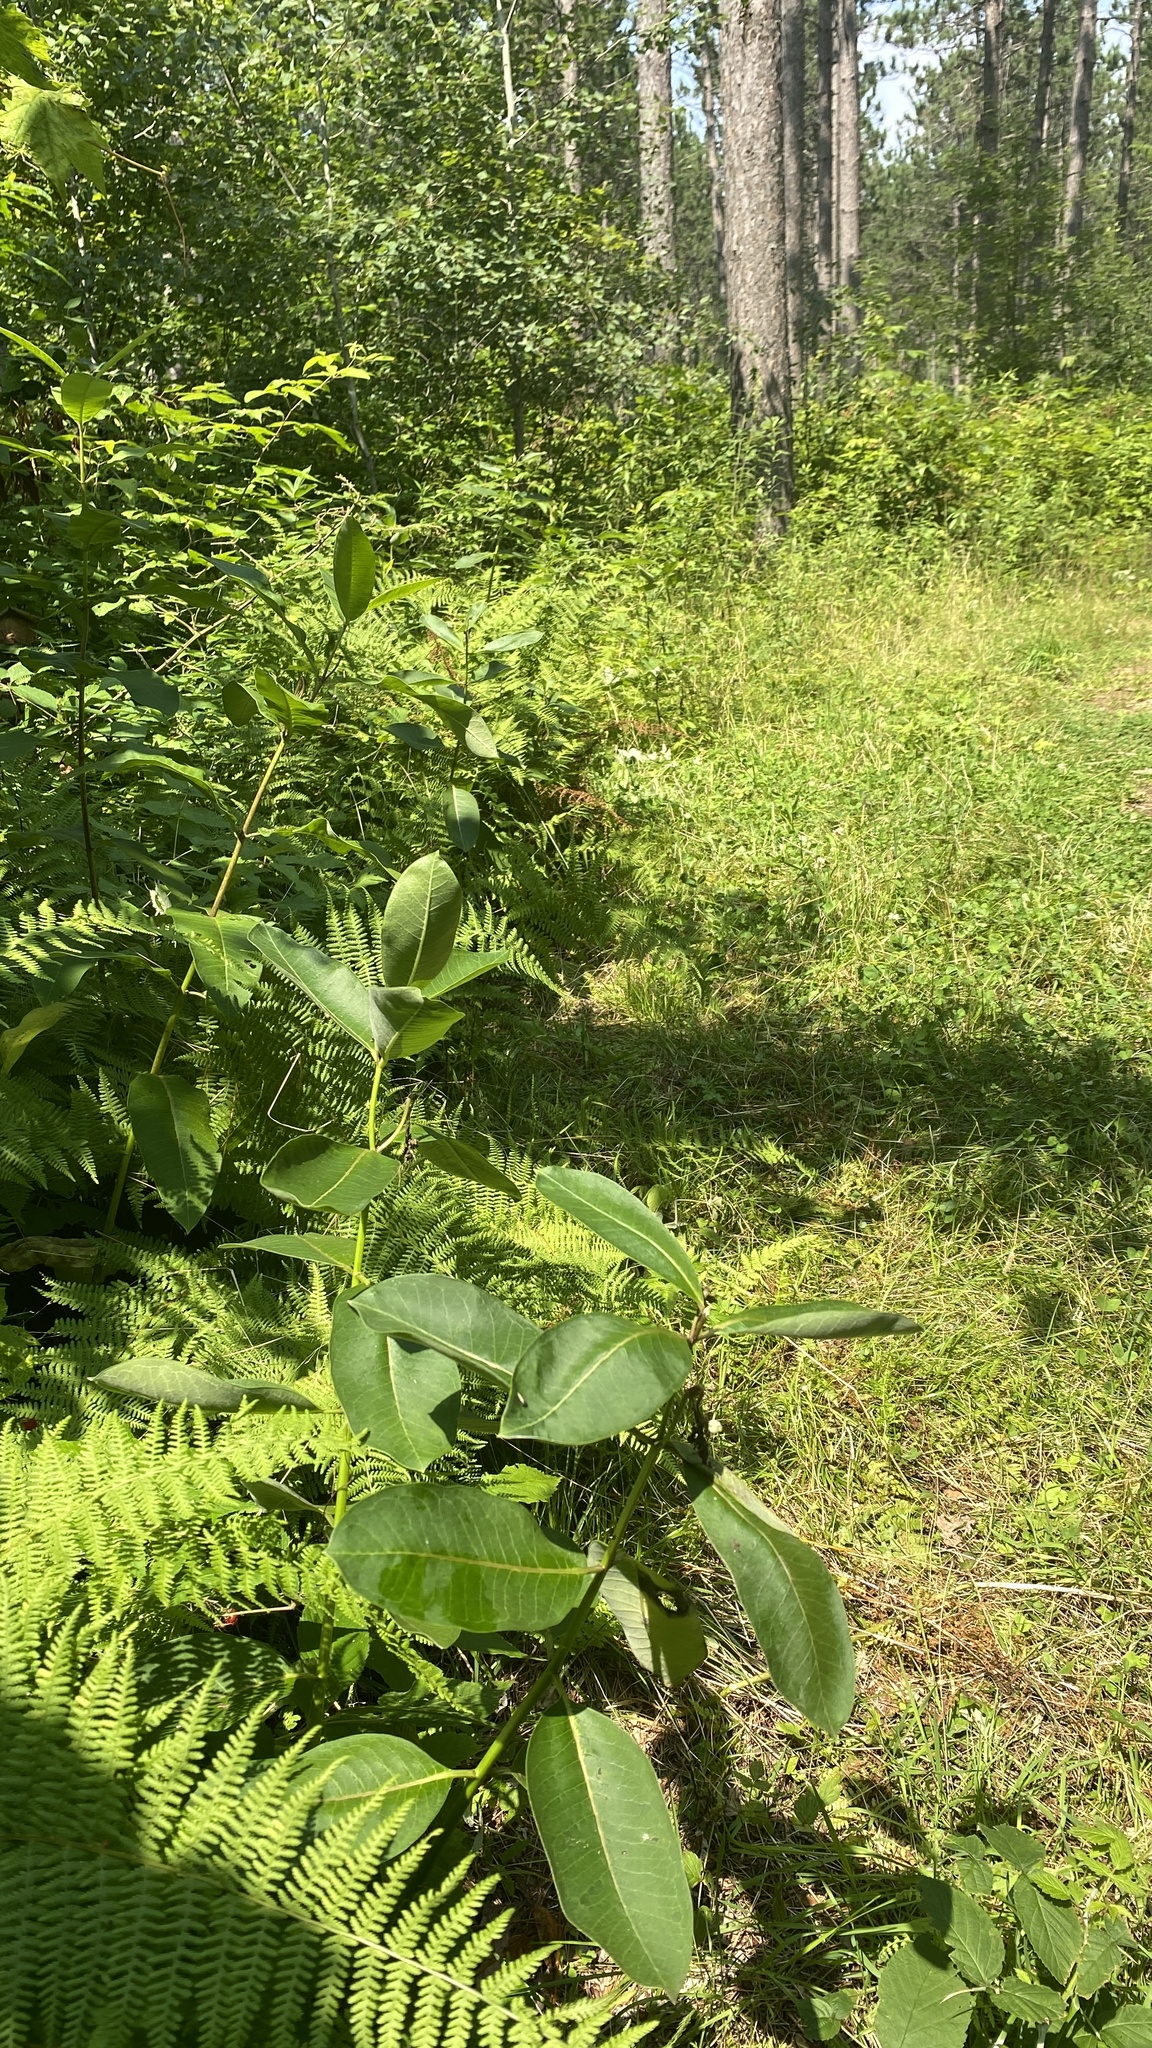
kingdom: Plantae
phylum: Tracheophyta
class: Magnoliopsida
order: Gentianales
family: Apocynaceae
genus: Asclepias
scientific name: Asclepias syriaca
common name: Common milkweed
